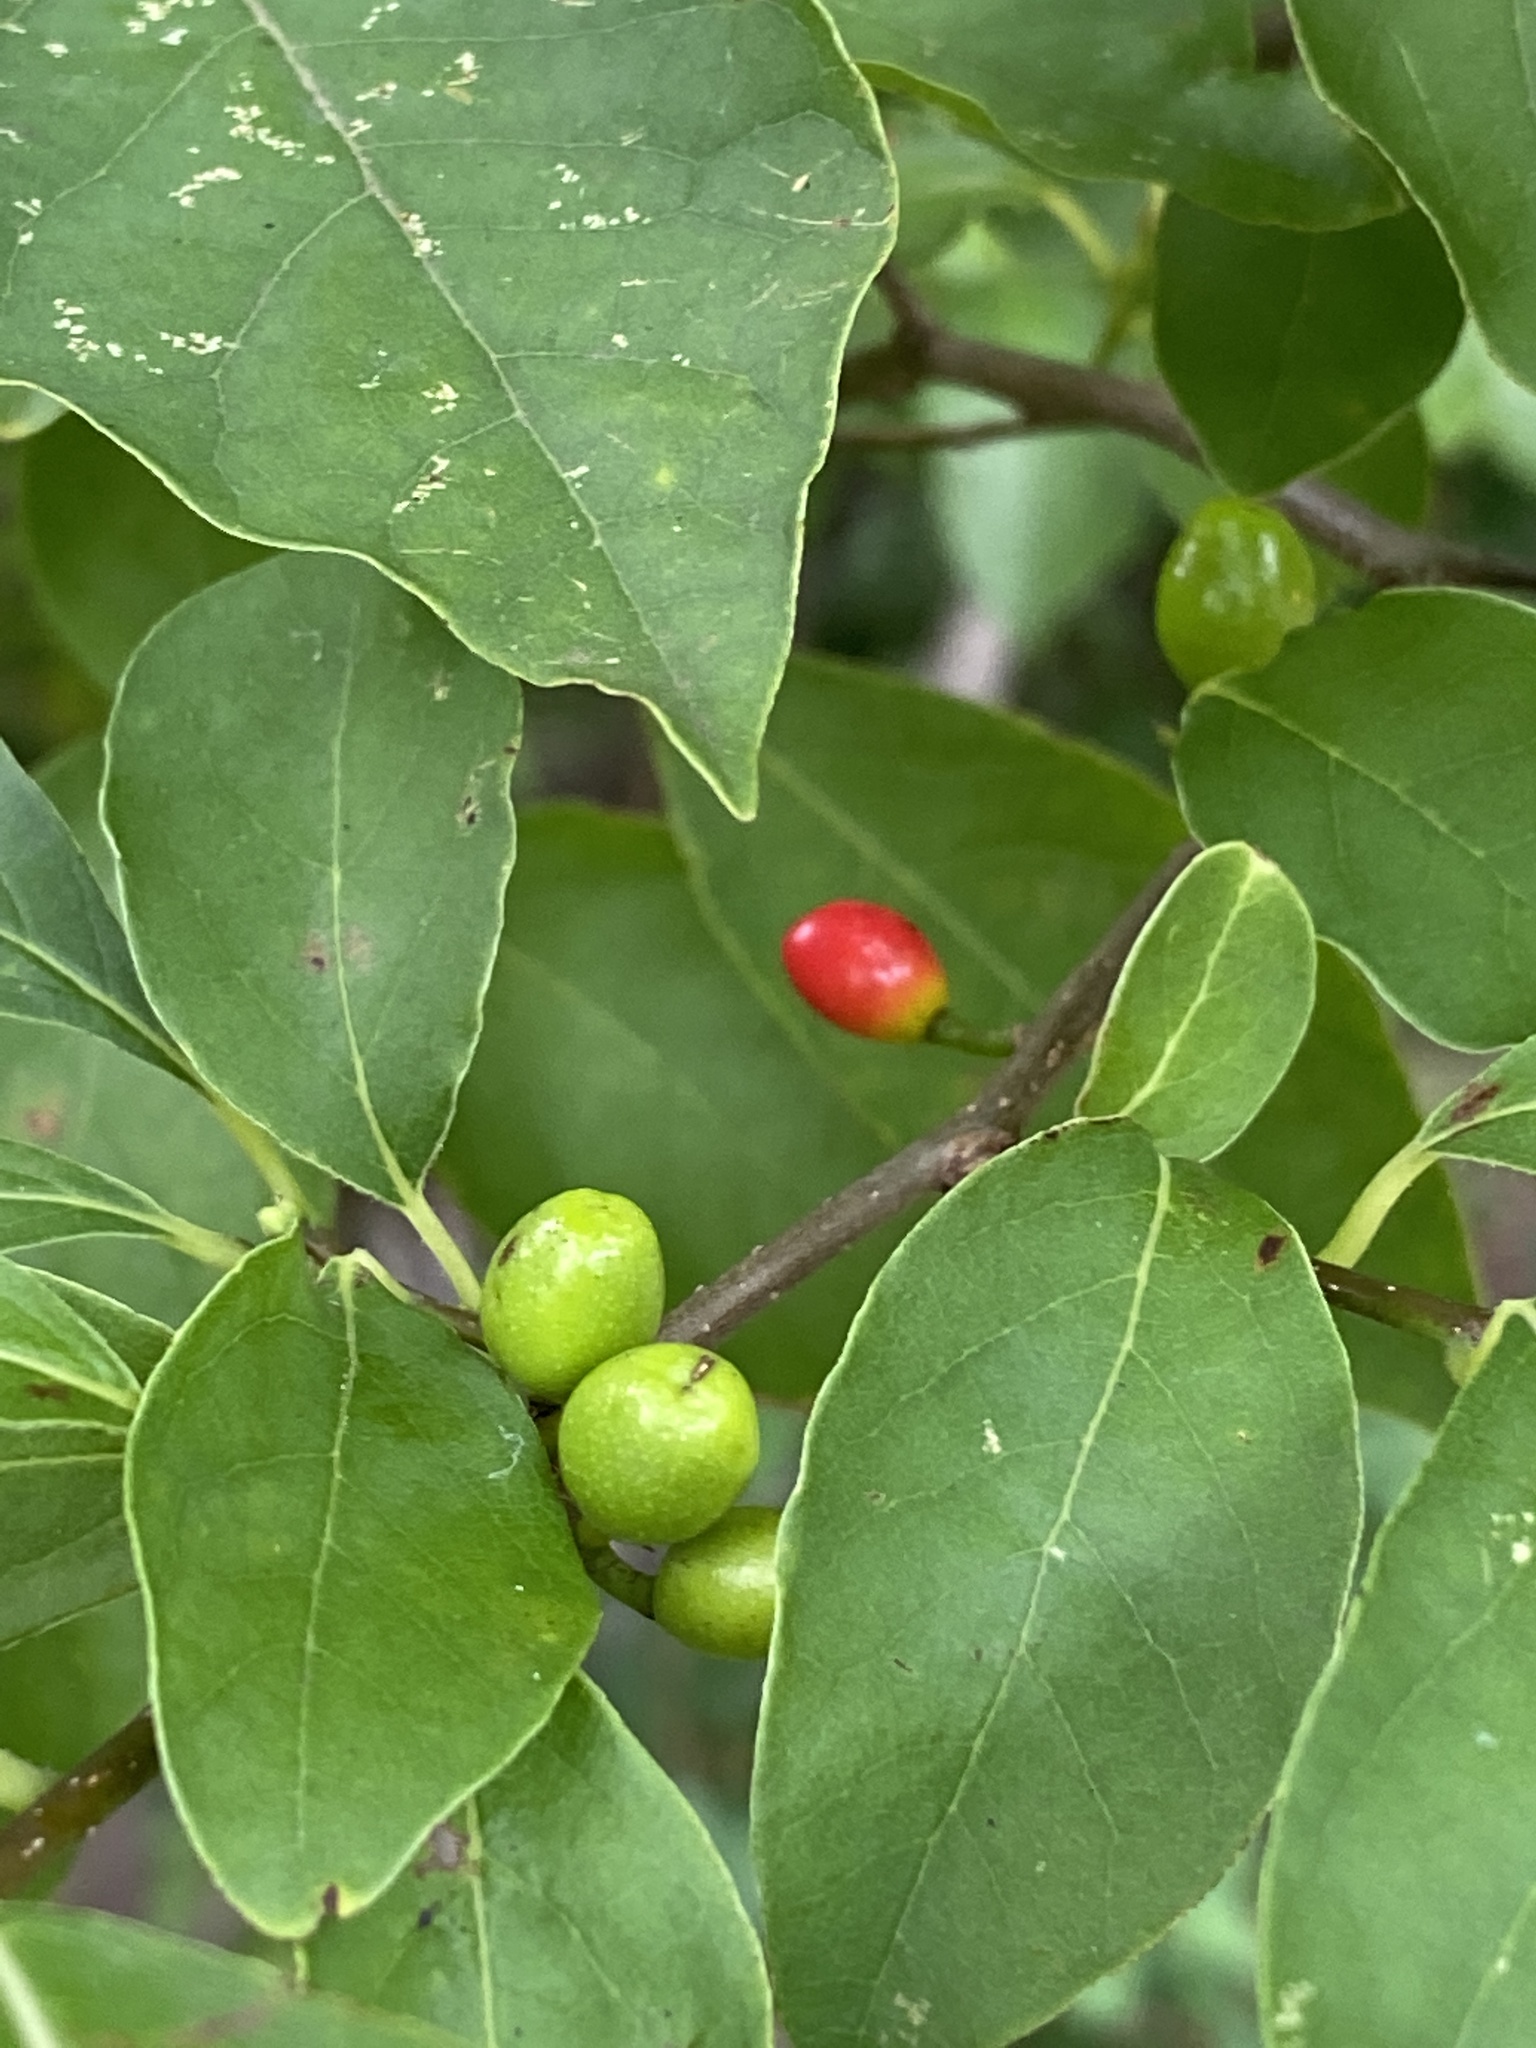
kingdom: Plantae
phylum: Tracheophyta
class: Magnoliopsida
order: Laurales
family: Lauraceae
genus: Lindera
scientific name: Lindera benzoin
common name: Spicebush
